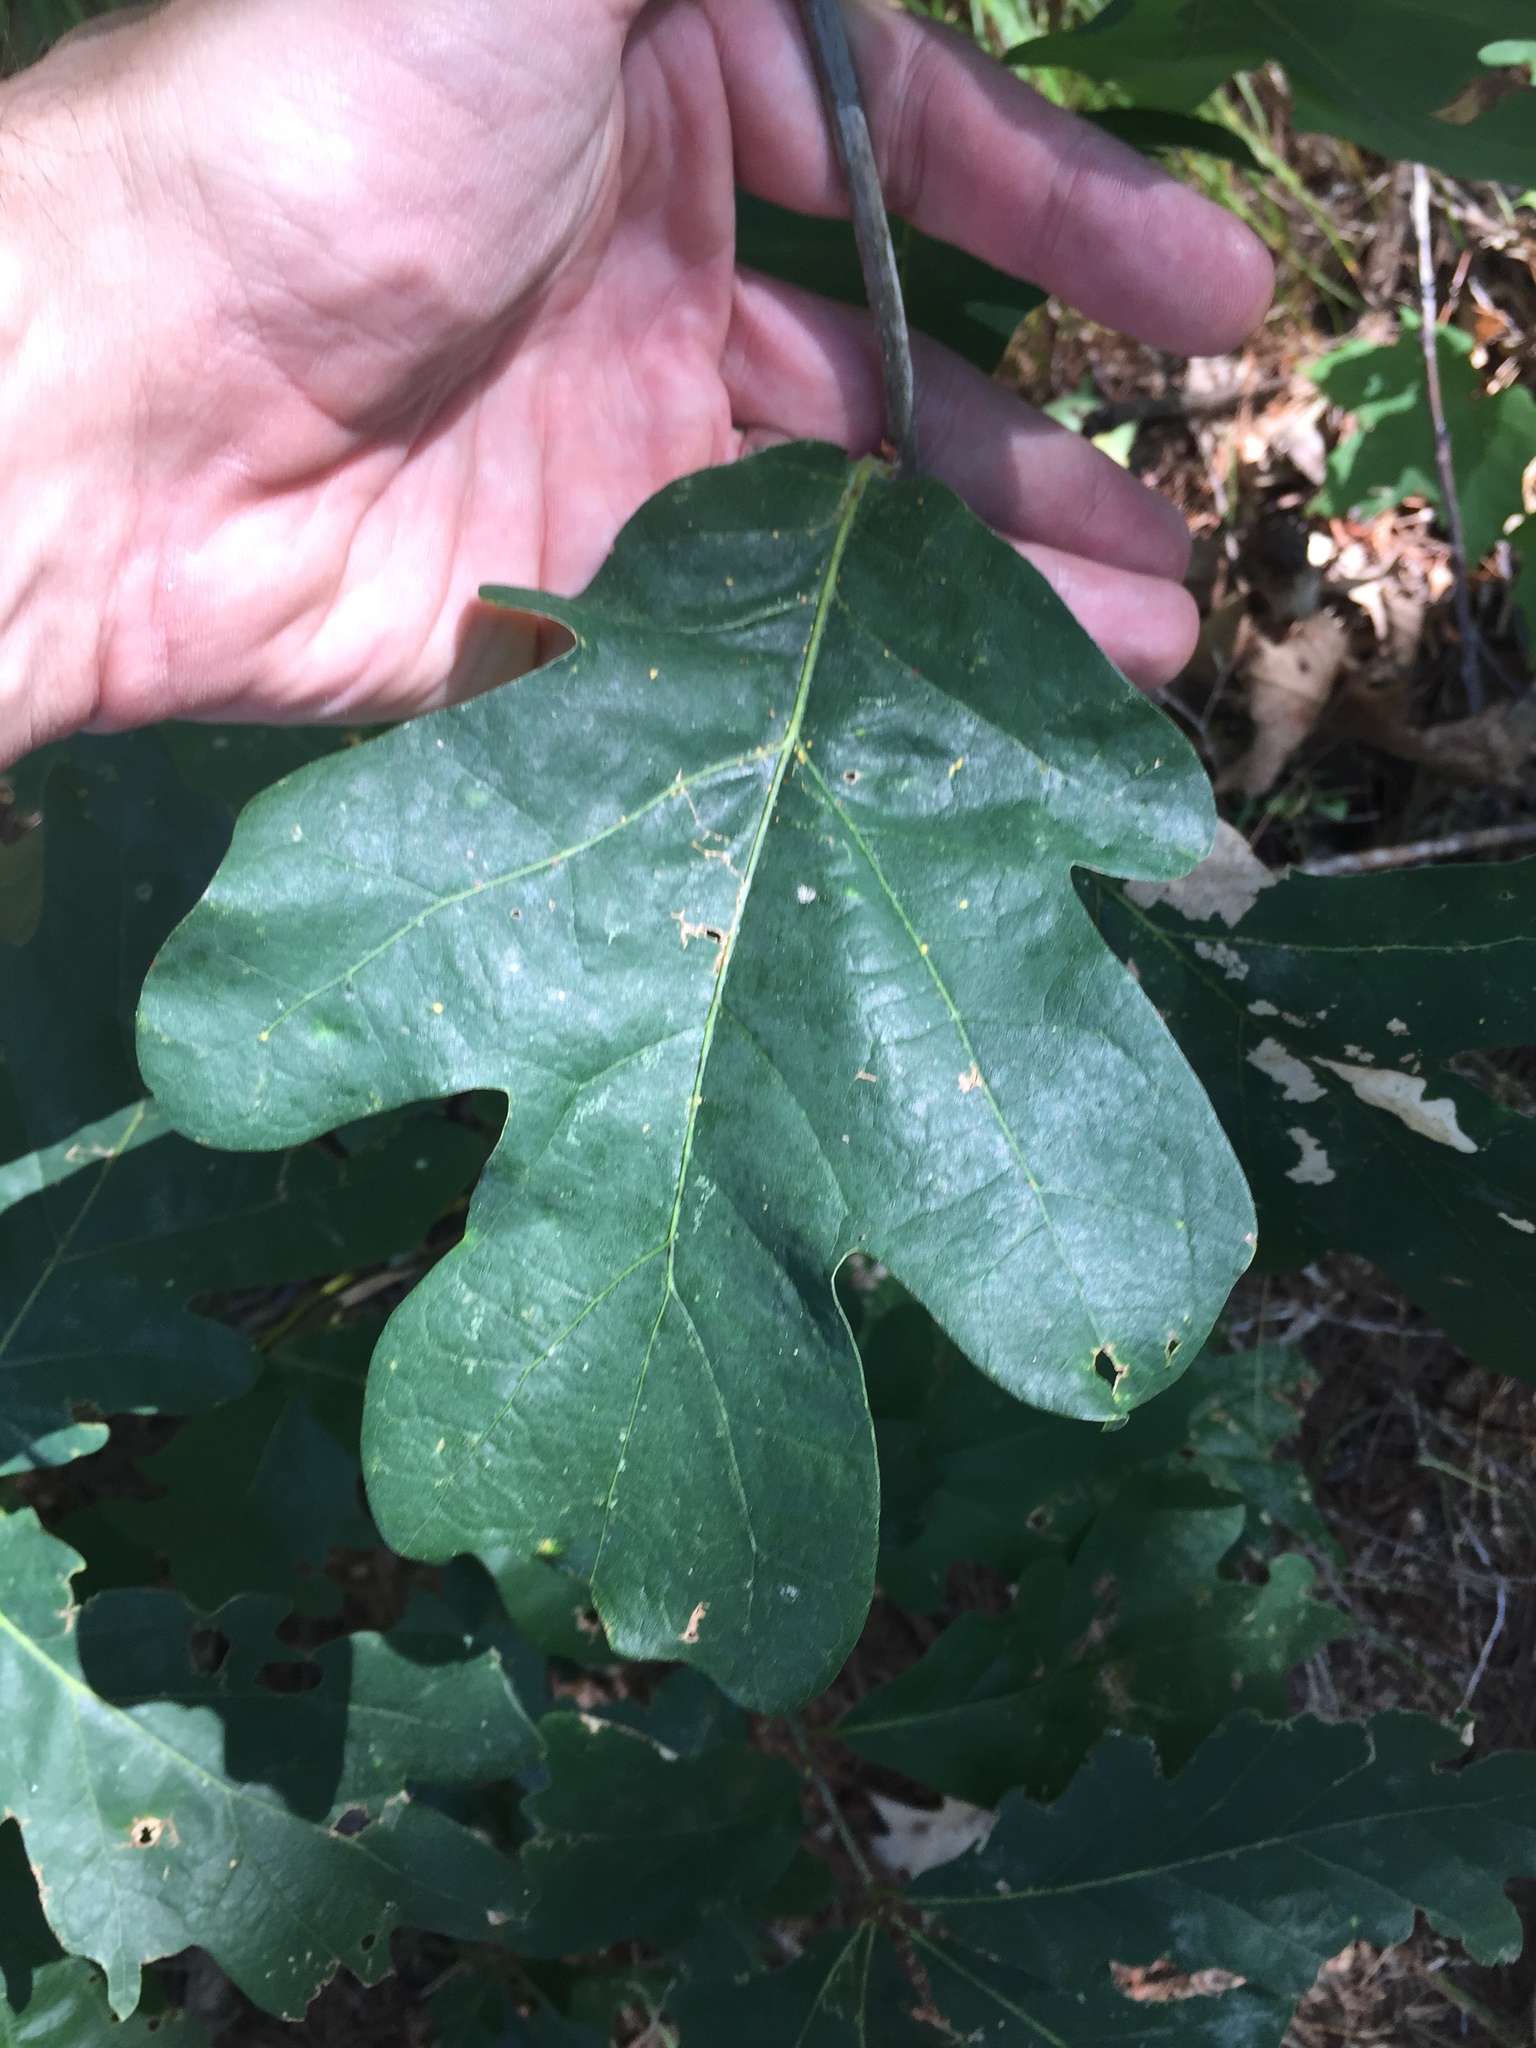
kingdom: Plantae
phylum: Tracheophyta
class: Magnoliopsida
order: Fagales
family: Fagaceae
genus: Quercus
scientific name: Quercus alba
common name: White oak
